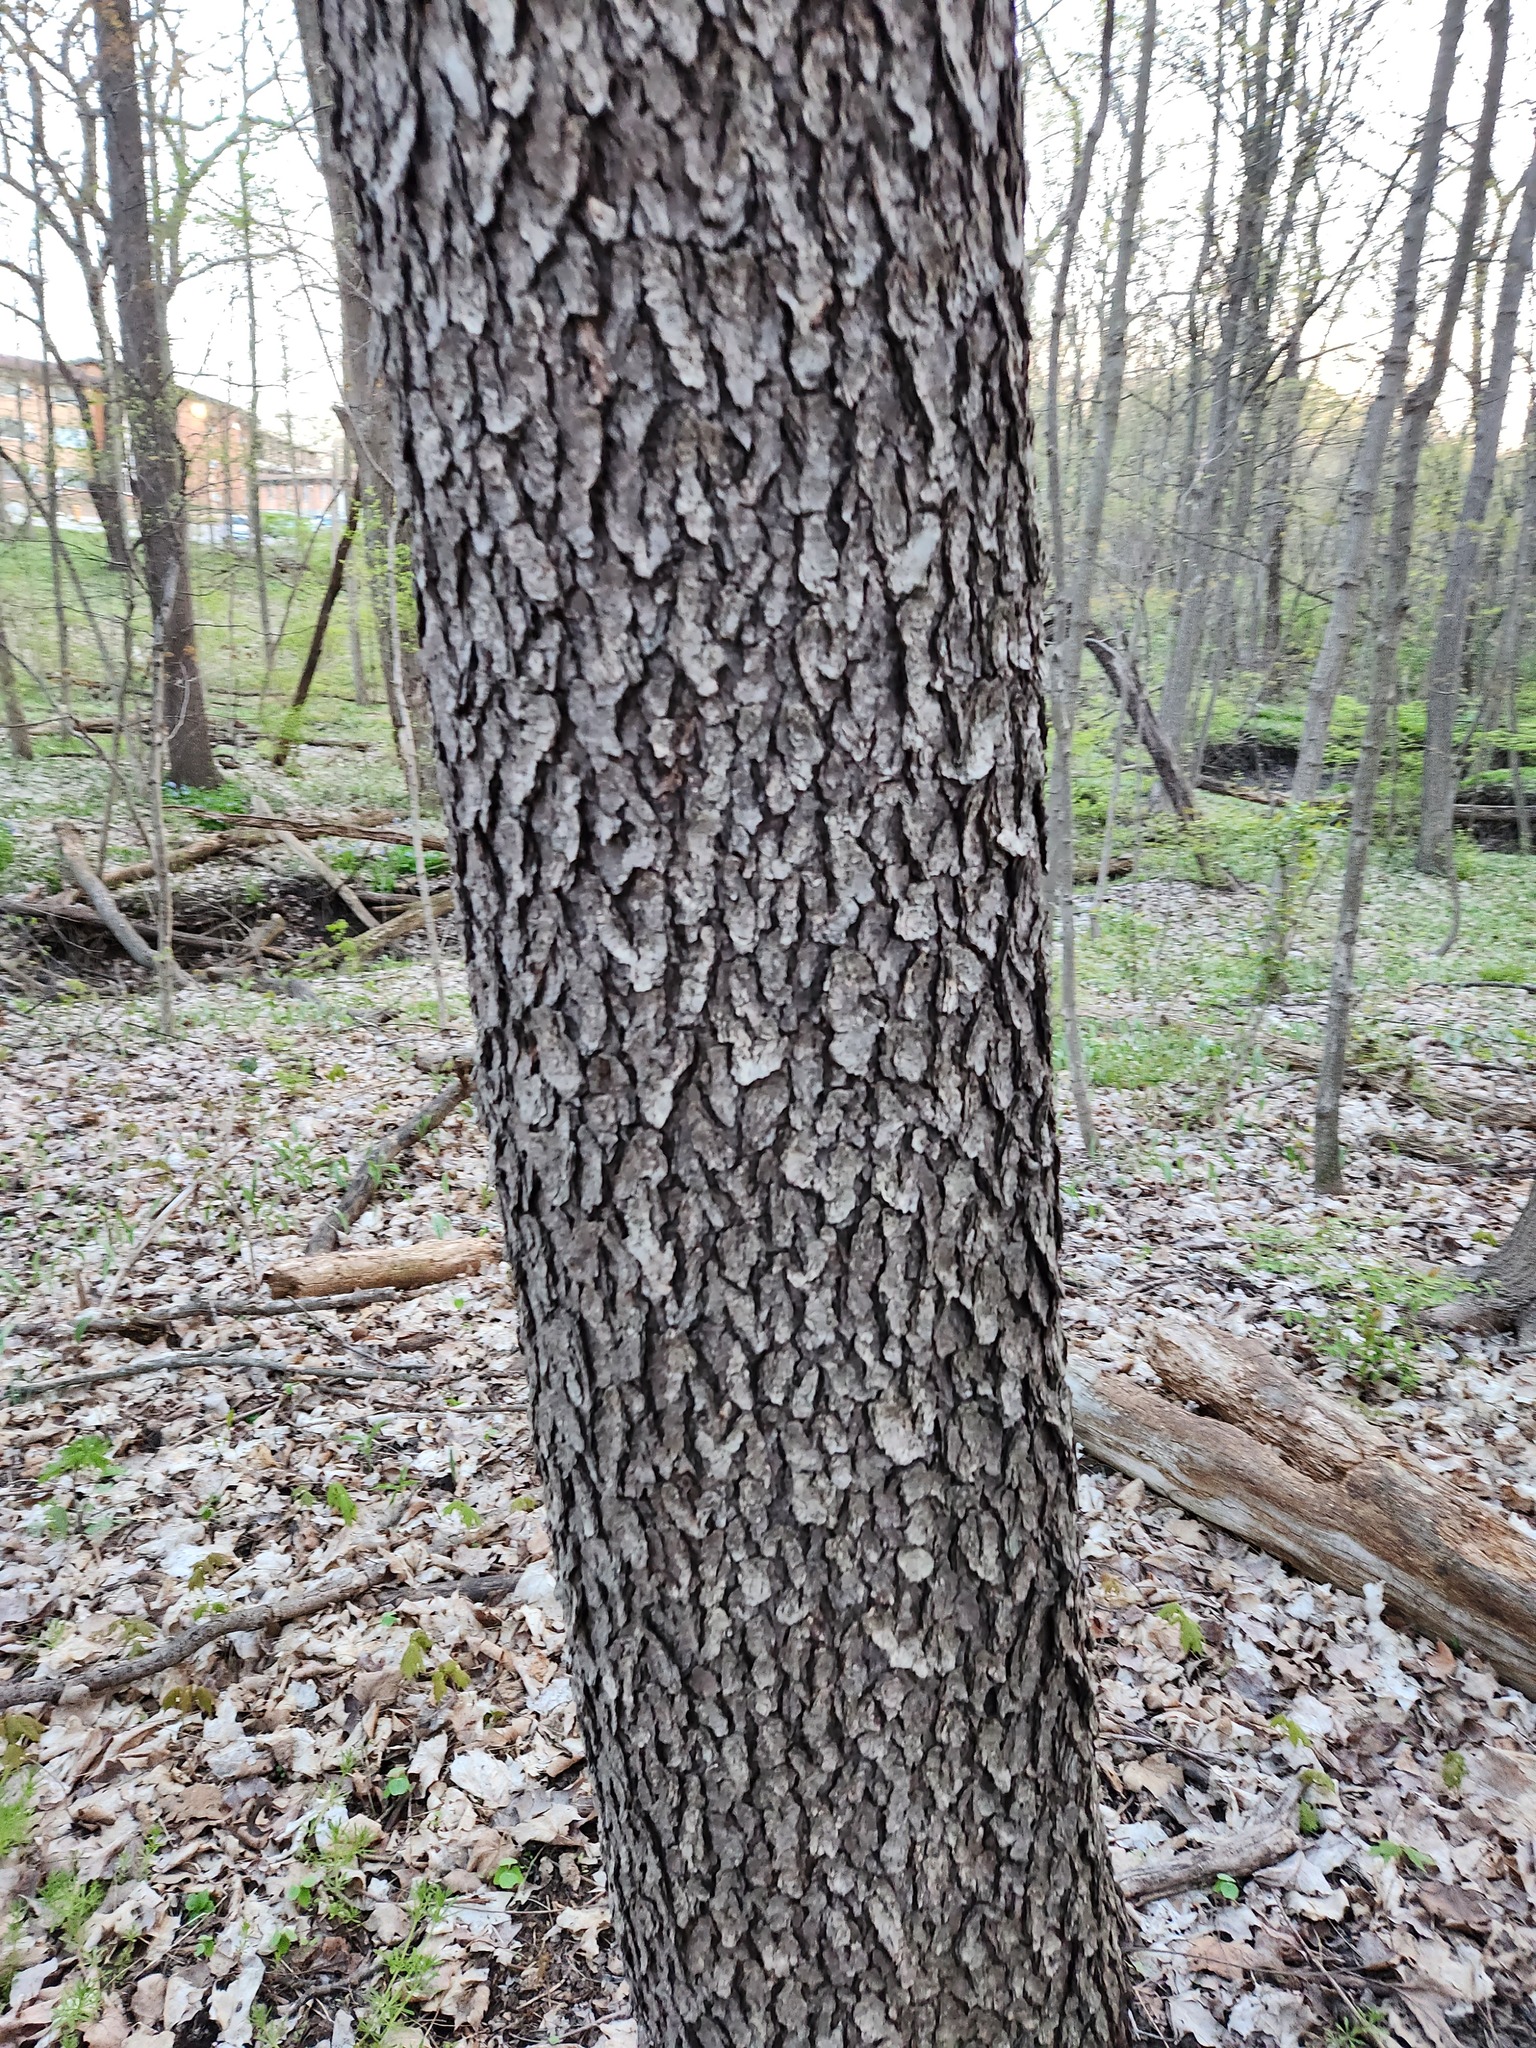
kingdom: Plantae
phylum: Tracheophyta
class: Magnoliopsida
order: Rosales
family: Rosaceae
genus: Prunus
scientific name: Prunus serotina
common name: Black cherry
